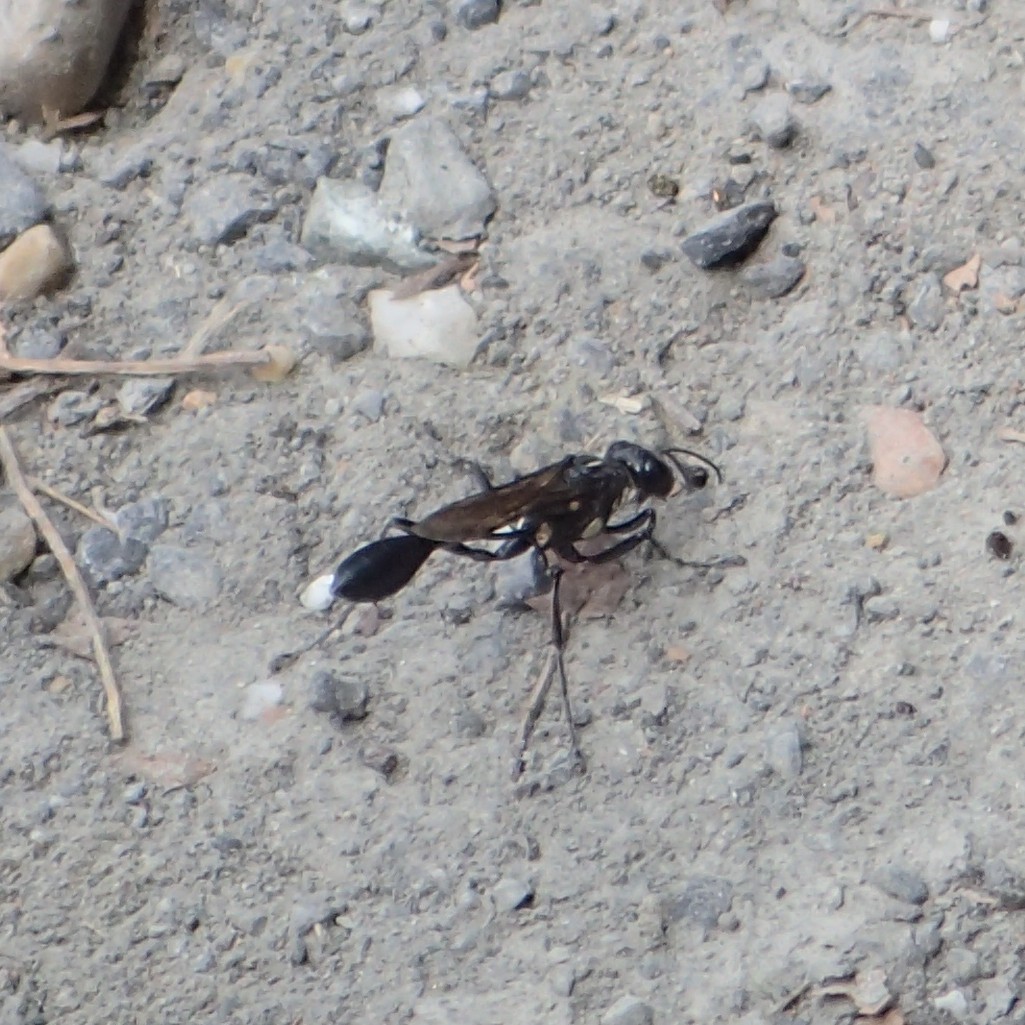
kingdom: Animalia
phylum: Arthropoda
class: Insecta
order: Hymenoptera
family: Sphecidae
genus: Eremnophila
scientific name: Eremnophila aureonotata
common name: Gold-marked thread-waisted wasp
